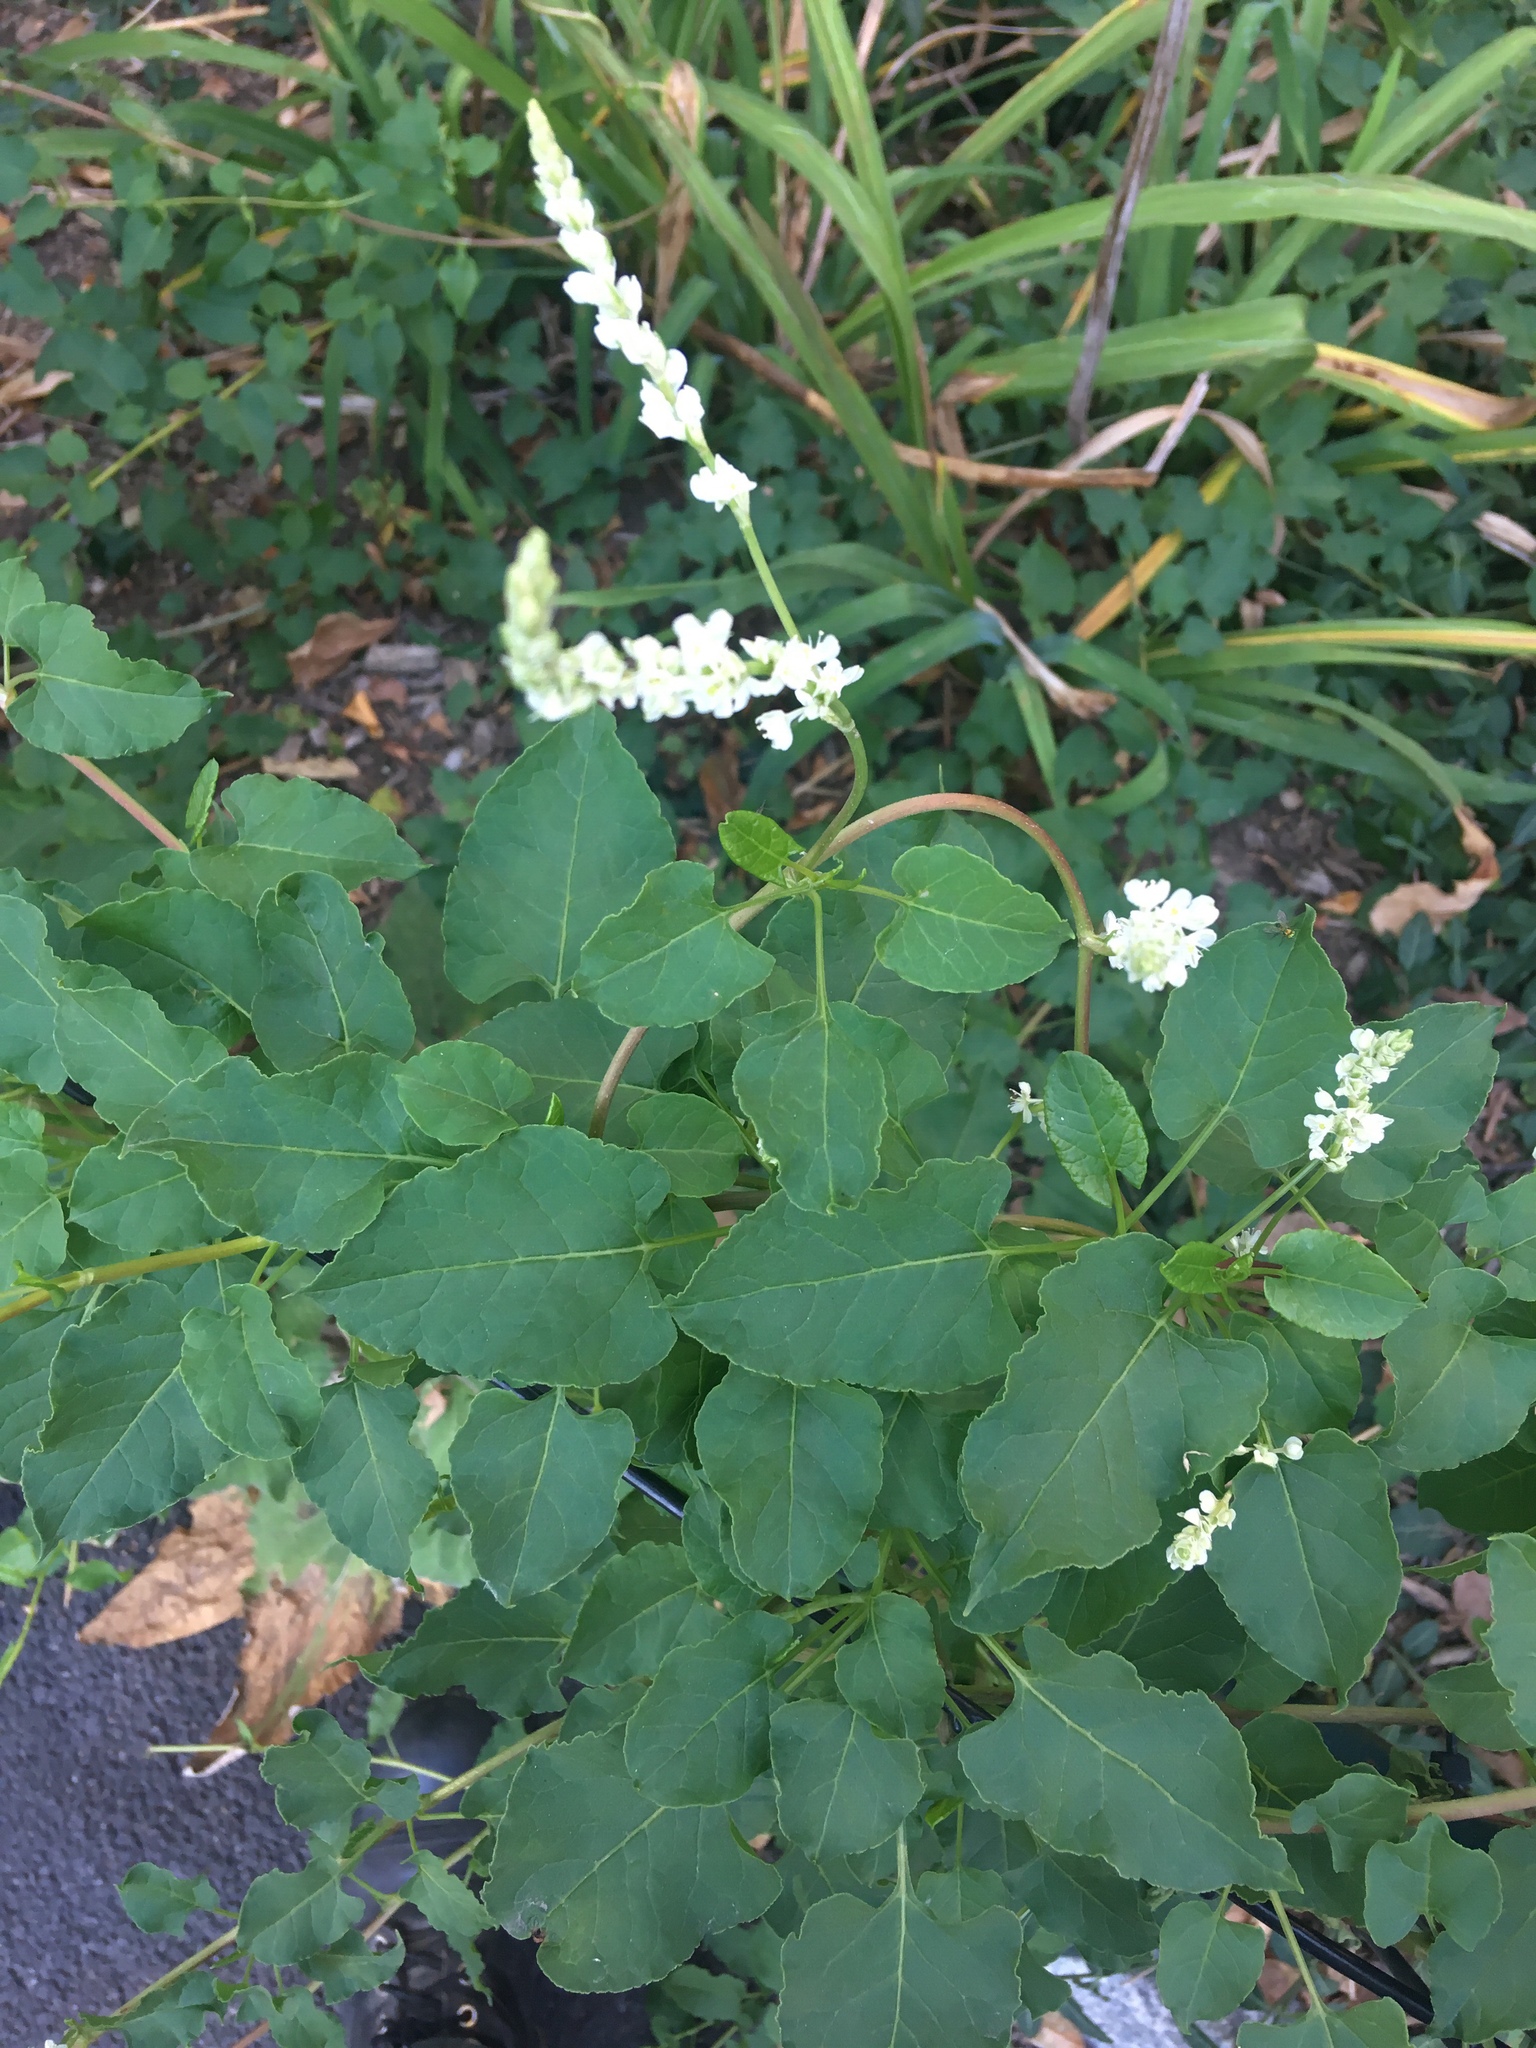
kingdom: Plantae
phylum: Tracheophyta
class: Magnoliopsida
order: Caryophyllales
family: Polygonaceae
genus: Fallopia
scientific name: Fallopia baldschuanica
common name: Russian-vine
